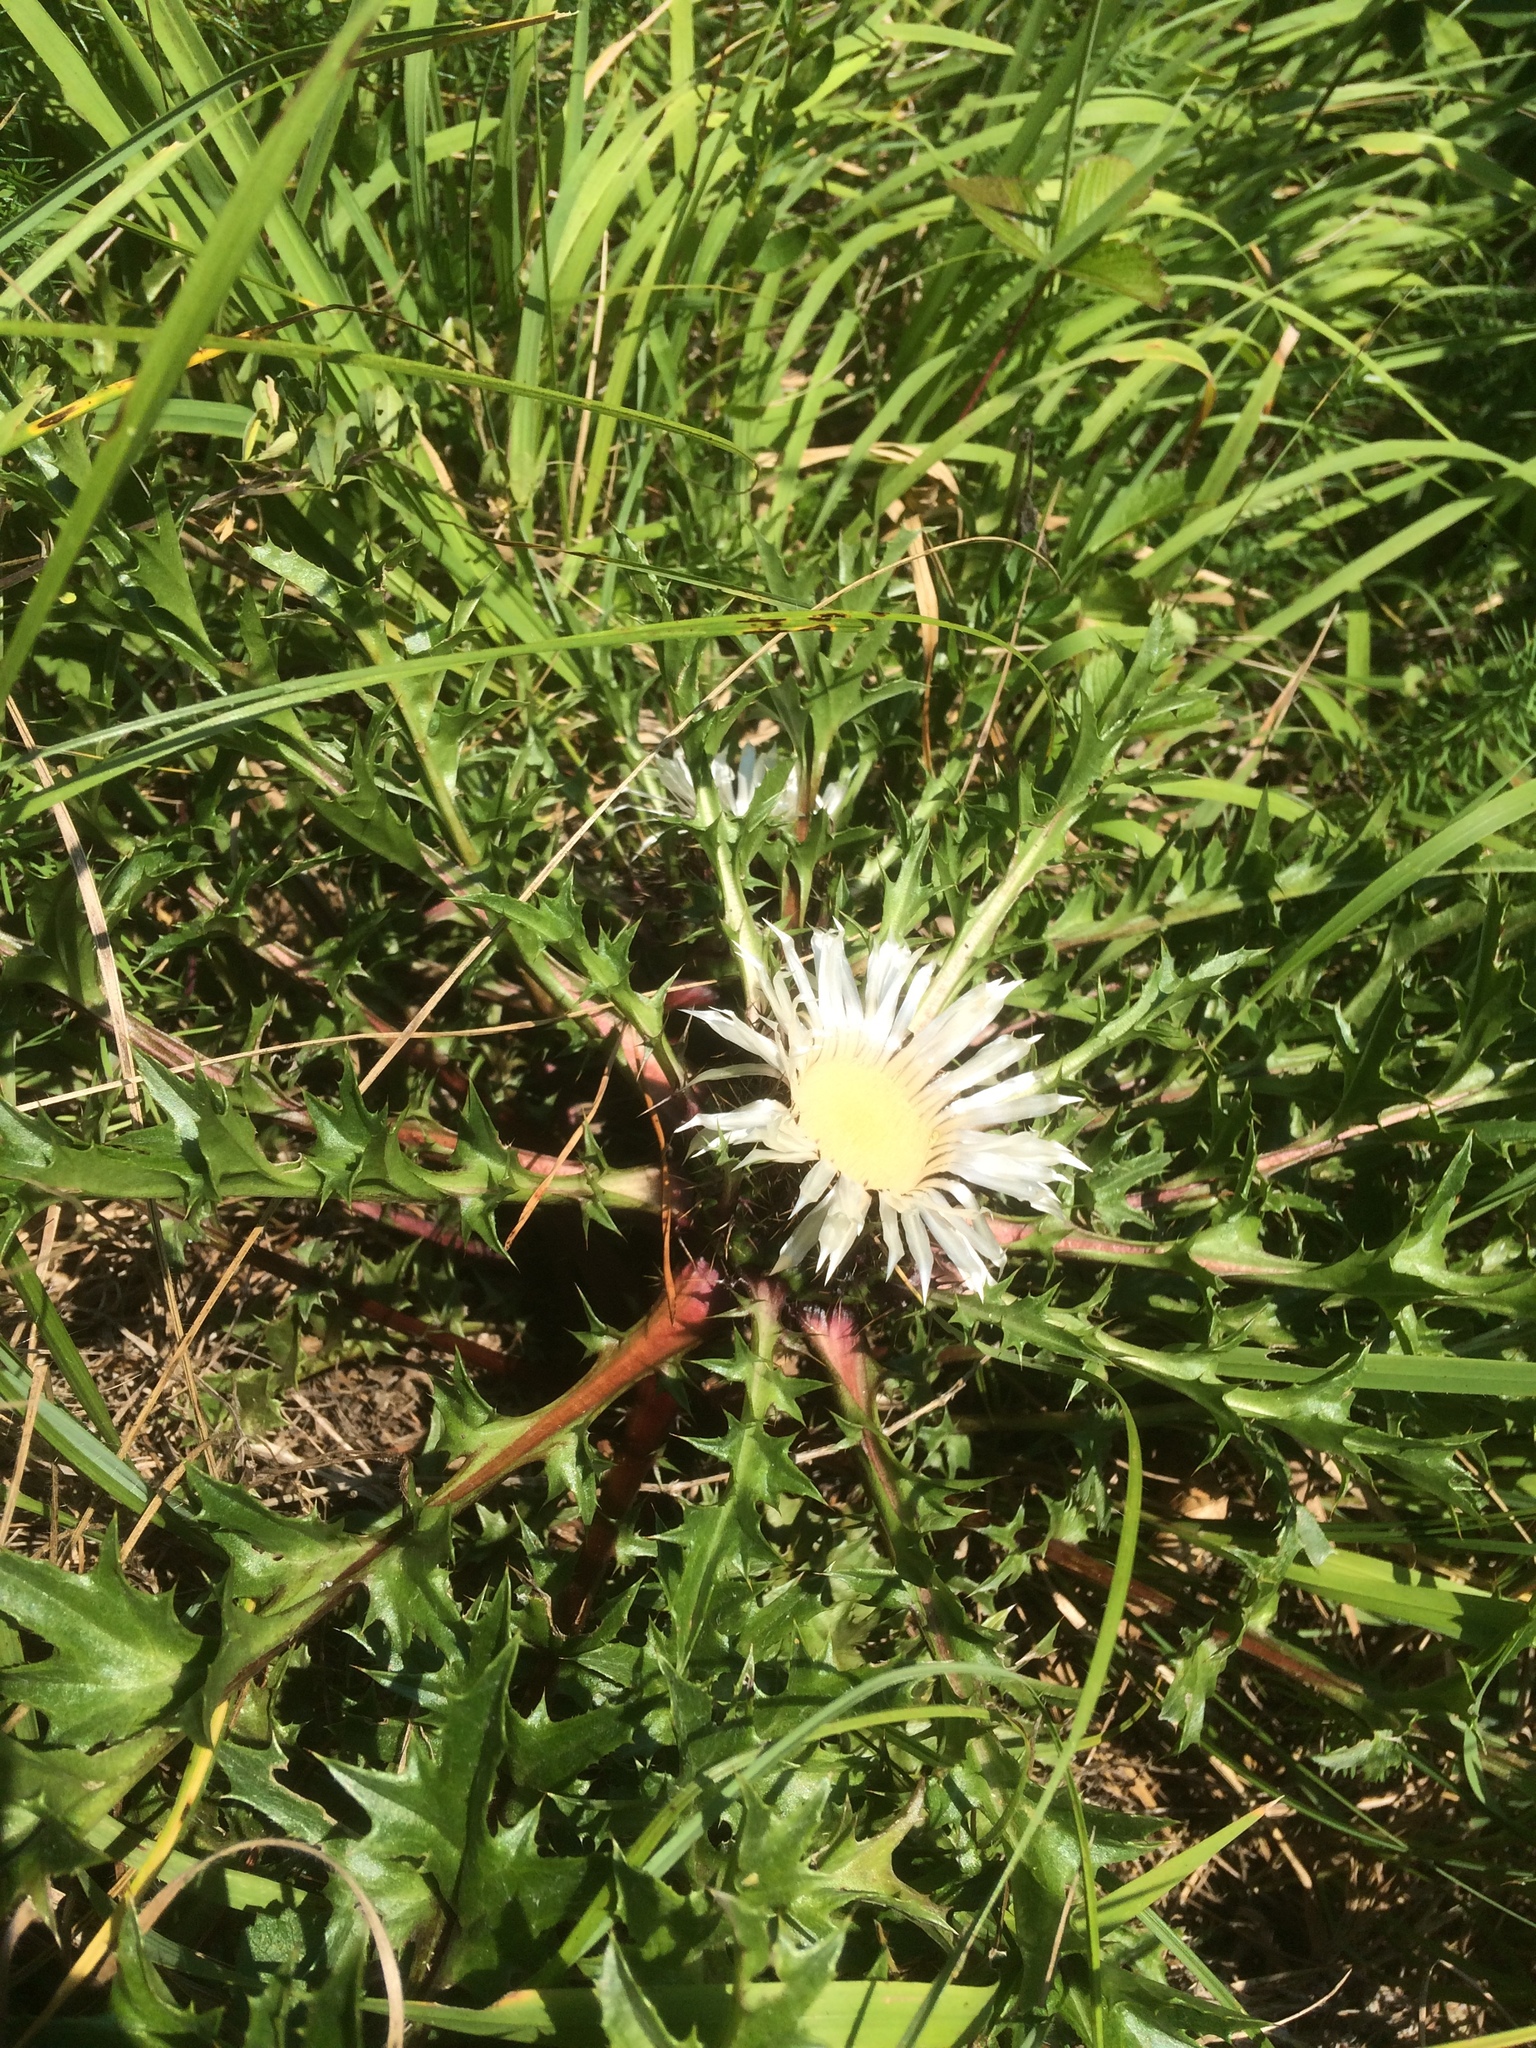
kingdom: Plantae
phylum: Tracheophyta
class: Magnoliopsida
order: Asterales
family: Asteraceae
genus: Carlina
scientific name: Carlina acaulis
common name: Stemless carline thistle
